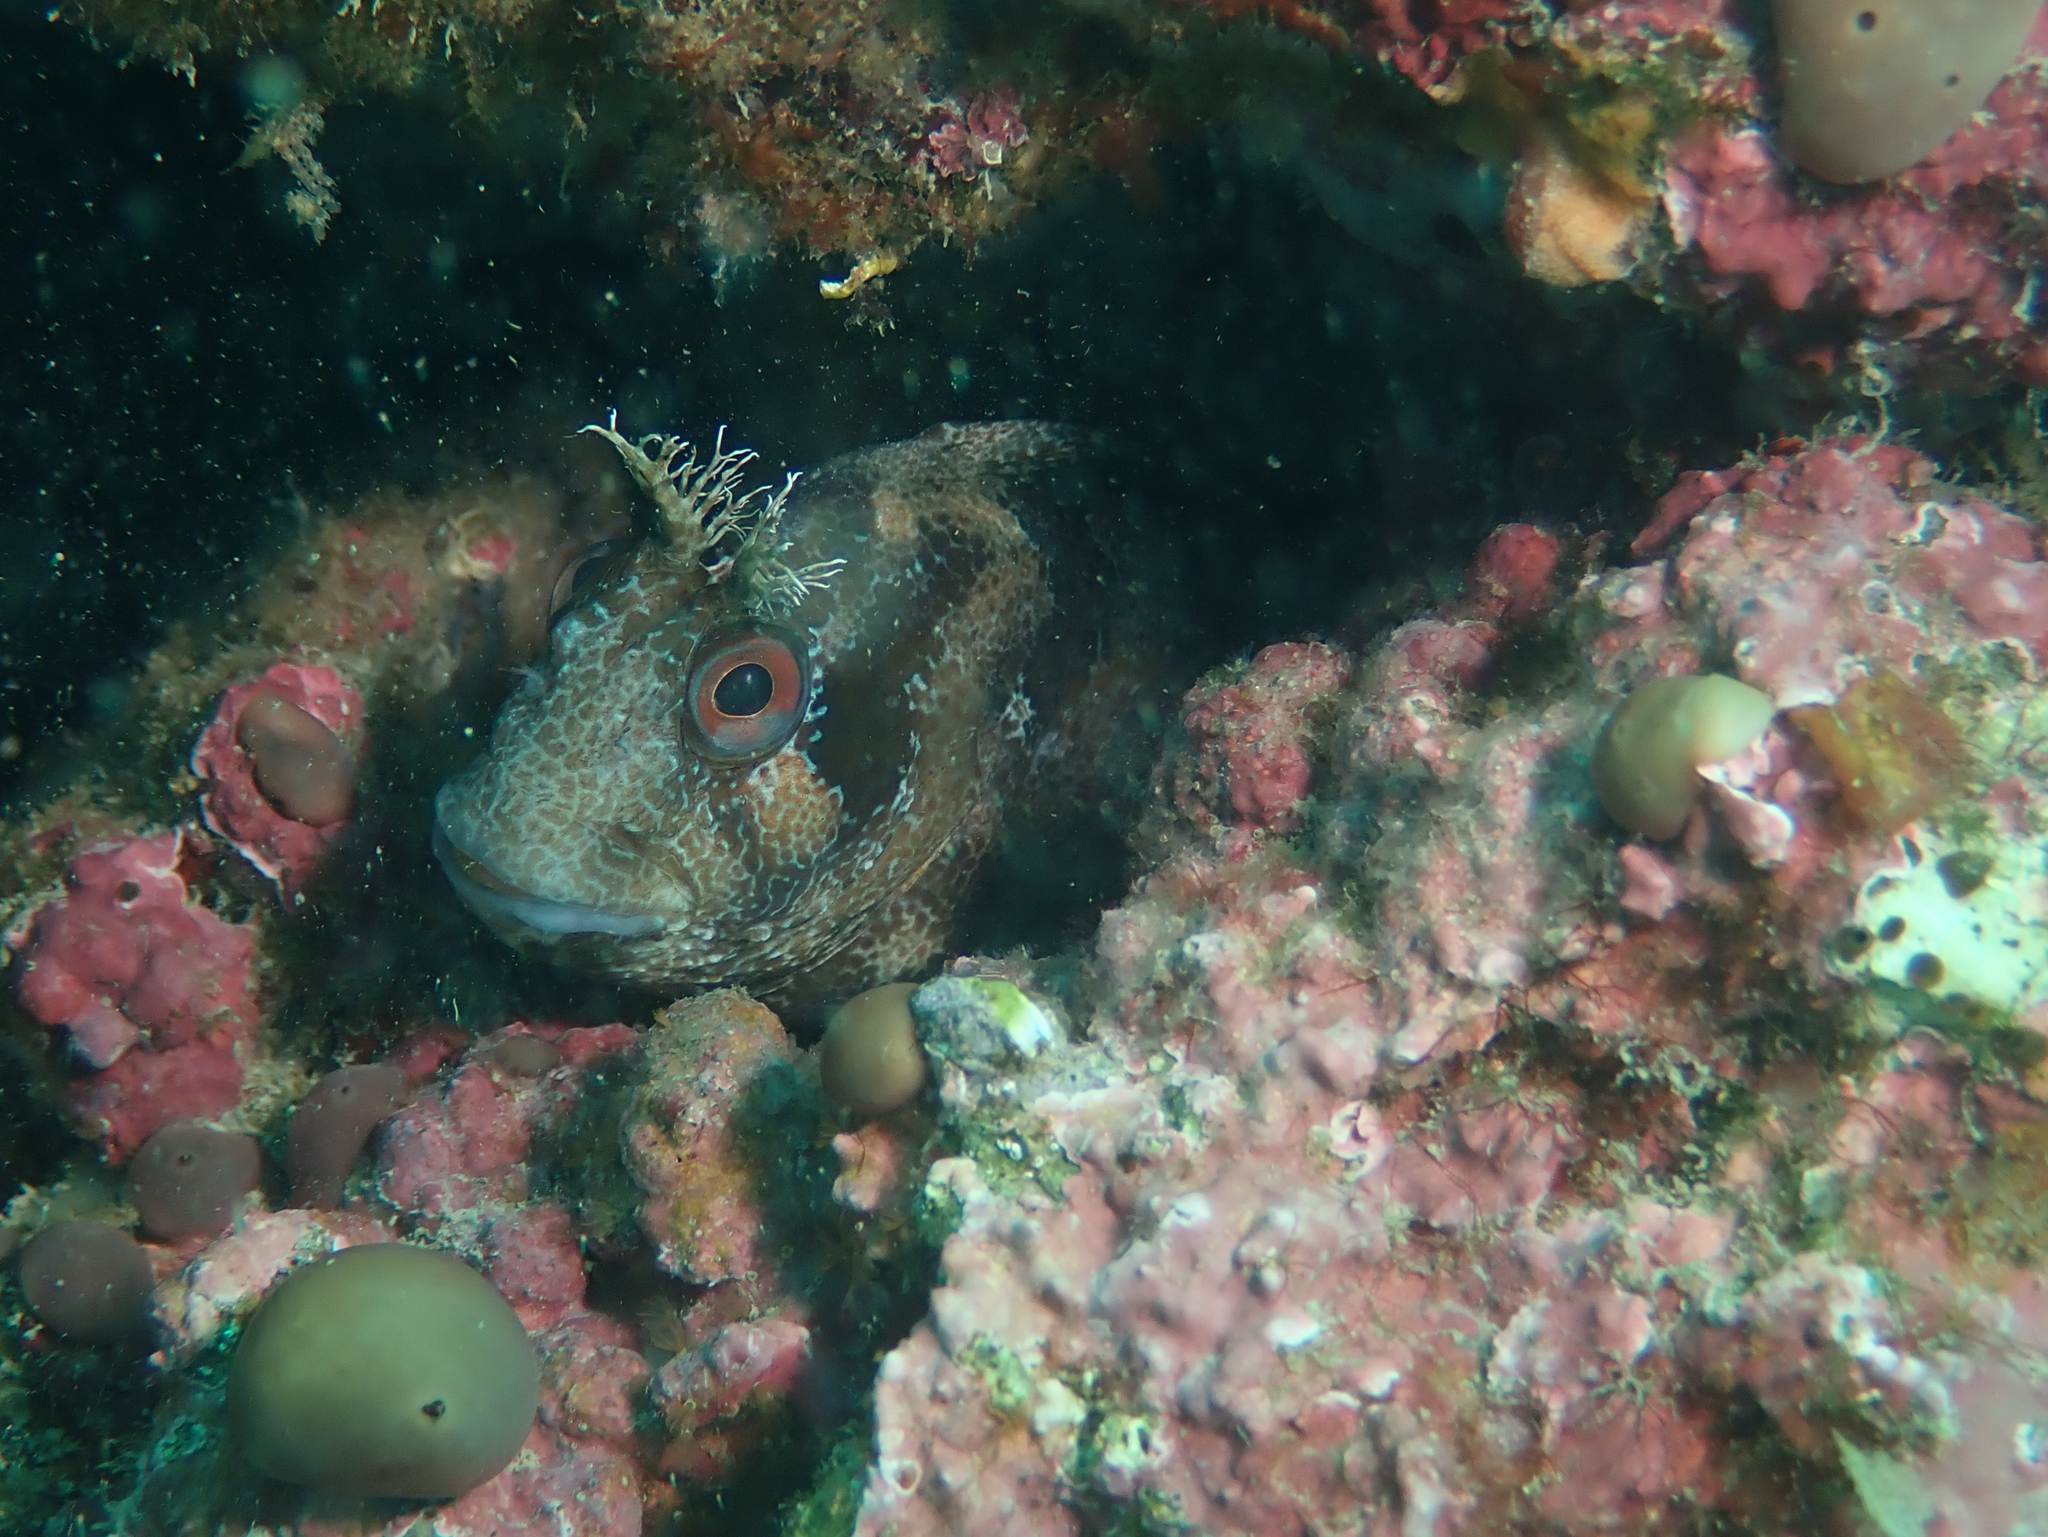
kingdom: Animalia
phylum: Chordata
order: Perciformes
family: Blenniidae
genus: Parablennius
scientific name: Parablennius gattorugine
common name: Tompot blenny
